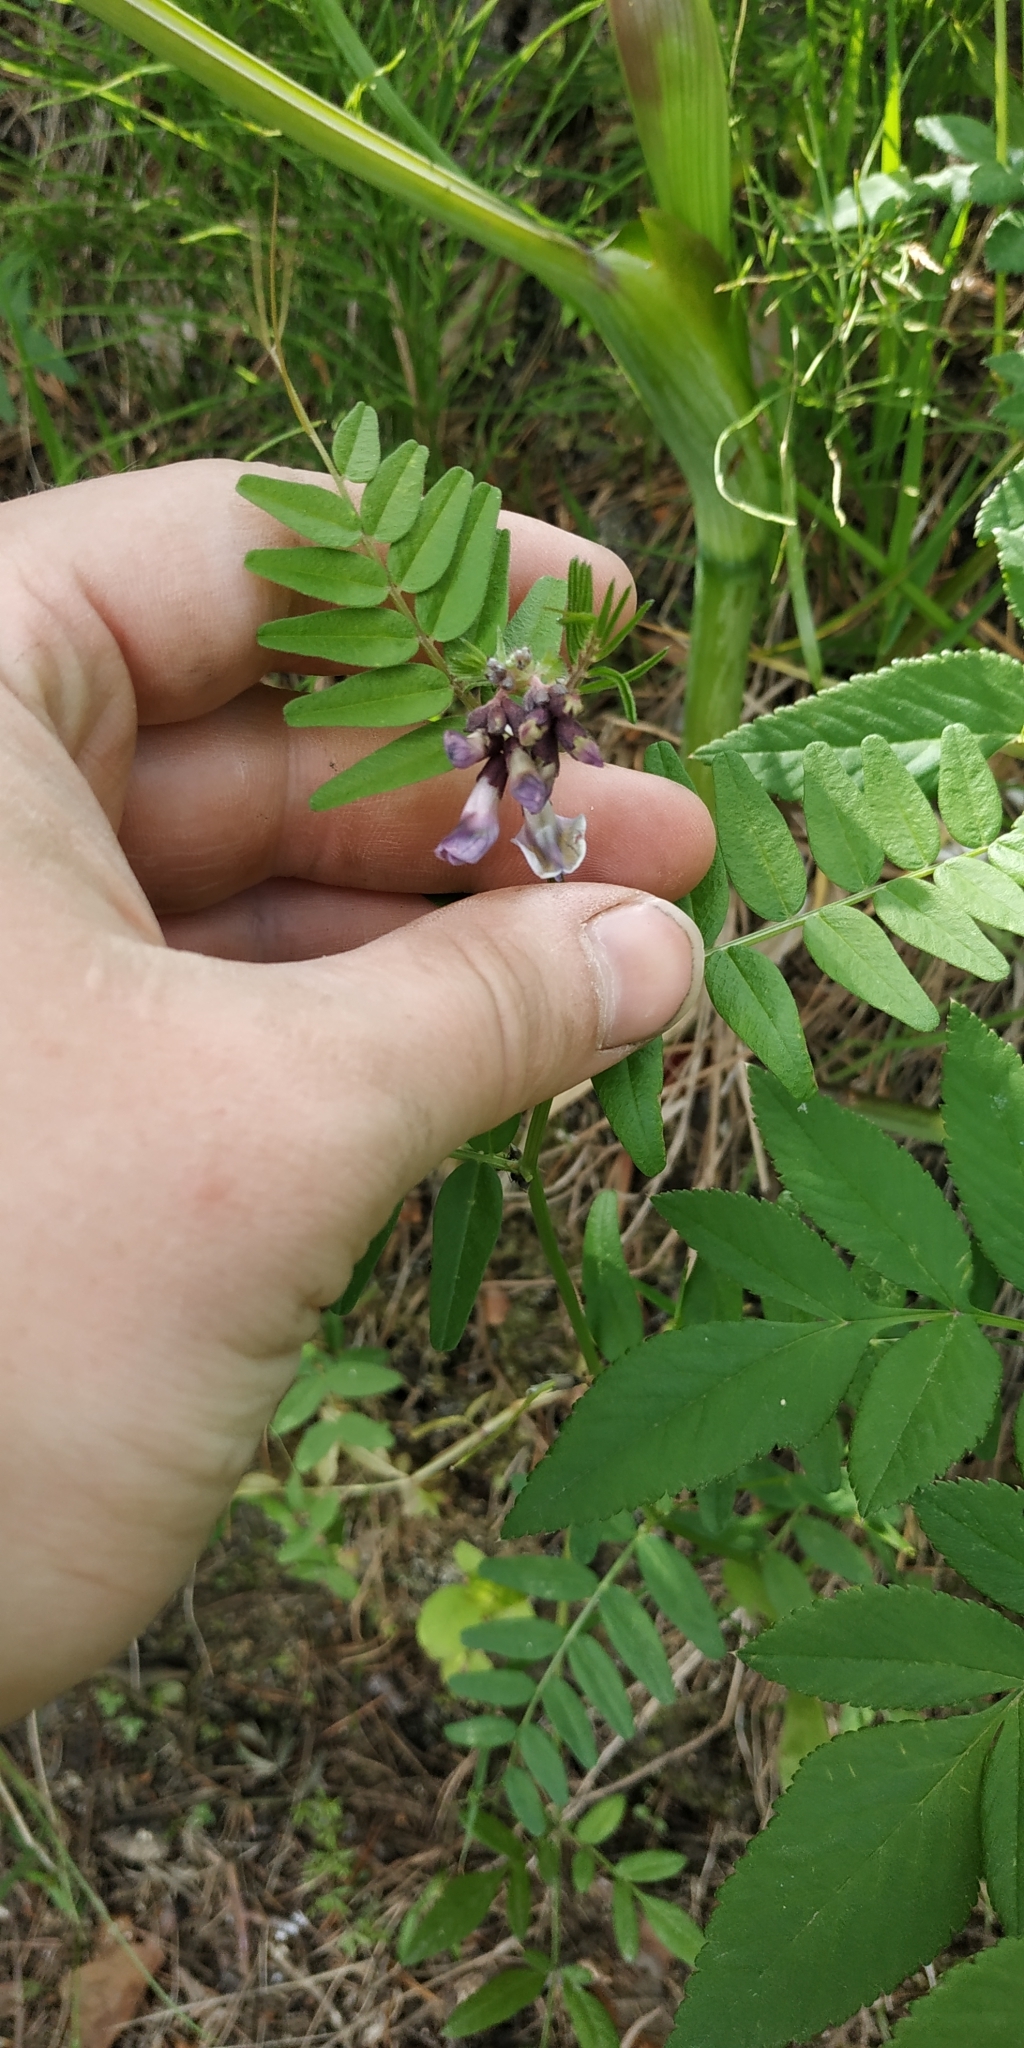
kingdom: Plantae
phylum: Tracheophyta
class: Magnoliopsida
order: Fabales
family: Fabaceae
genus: Vicia
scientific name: Vicia sepium
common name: Bush vetch
